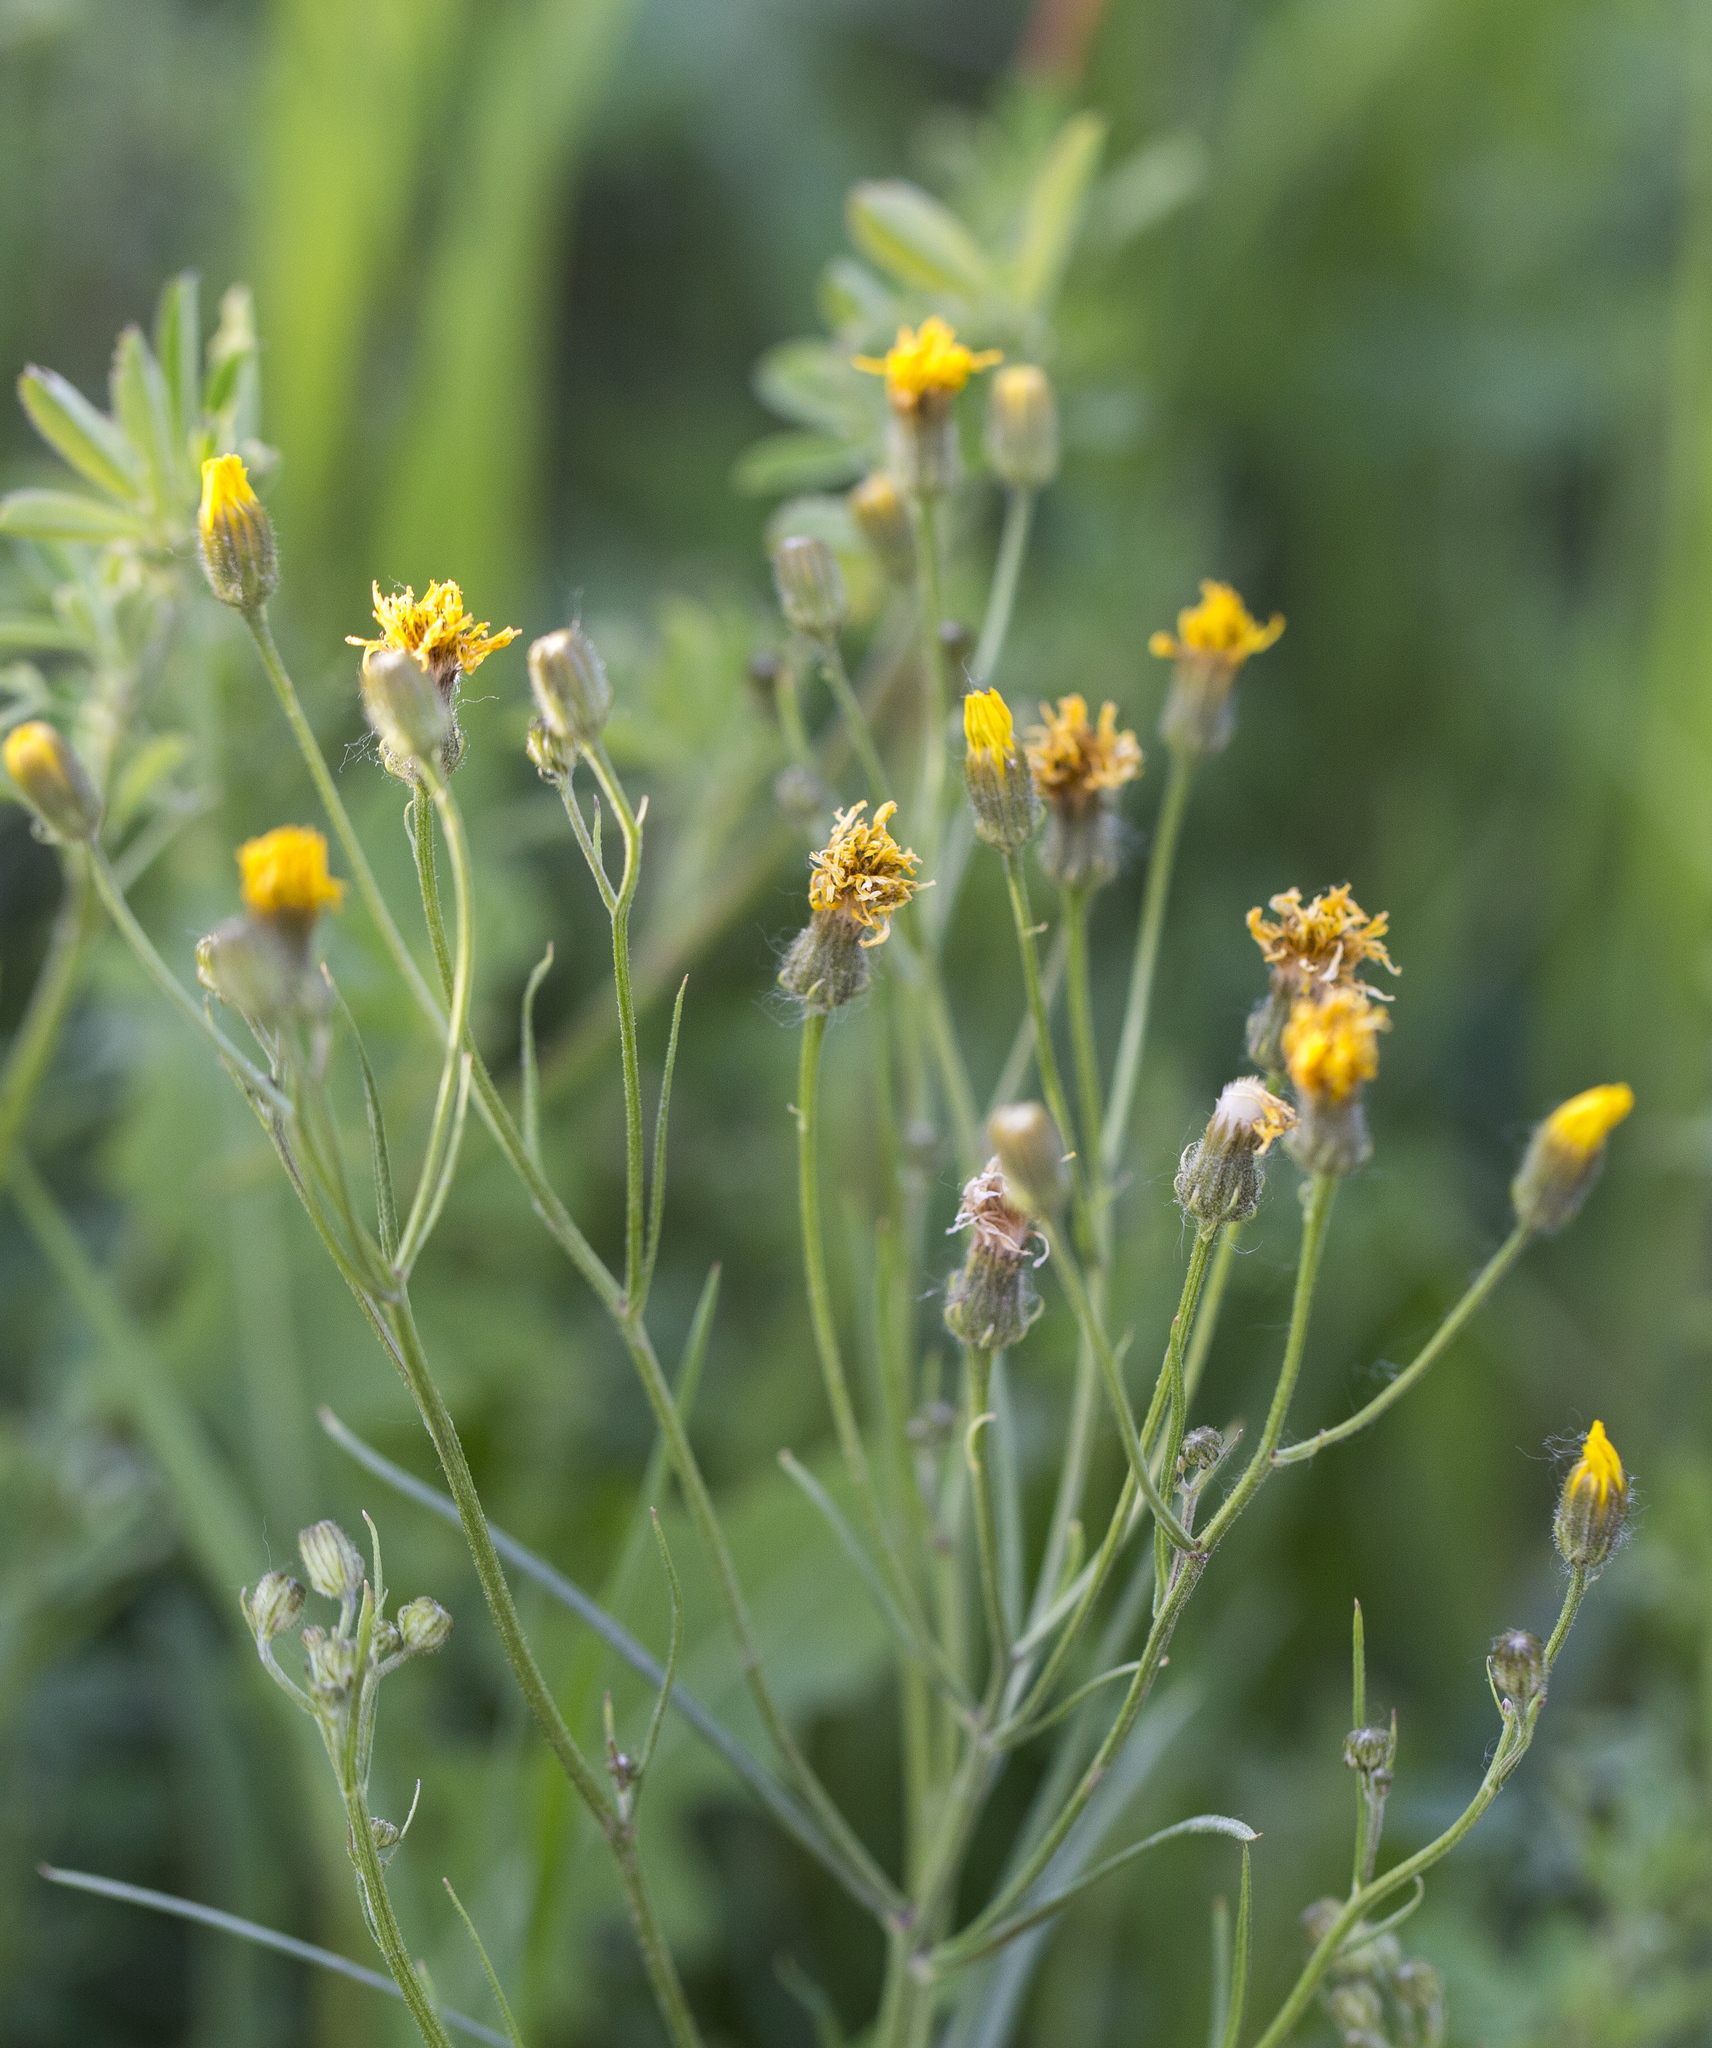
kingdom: Plantae
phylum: Tracheophyta
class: Magnoliopsida
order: Asterales
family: Asteraceae
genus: Crepis
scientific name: Crepis tectorum
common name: Narrow-leaved hawk's-beard
